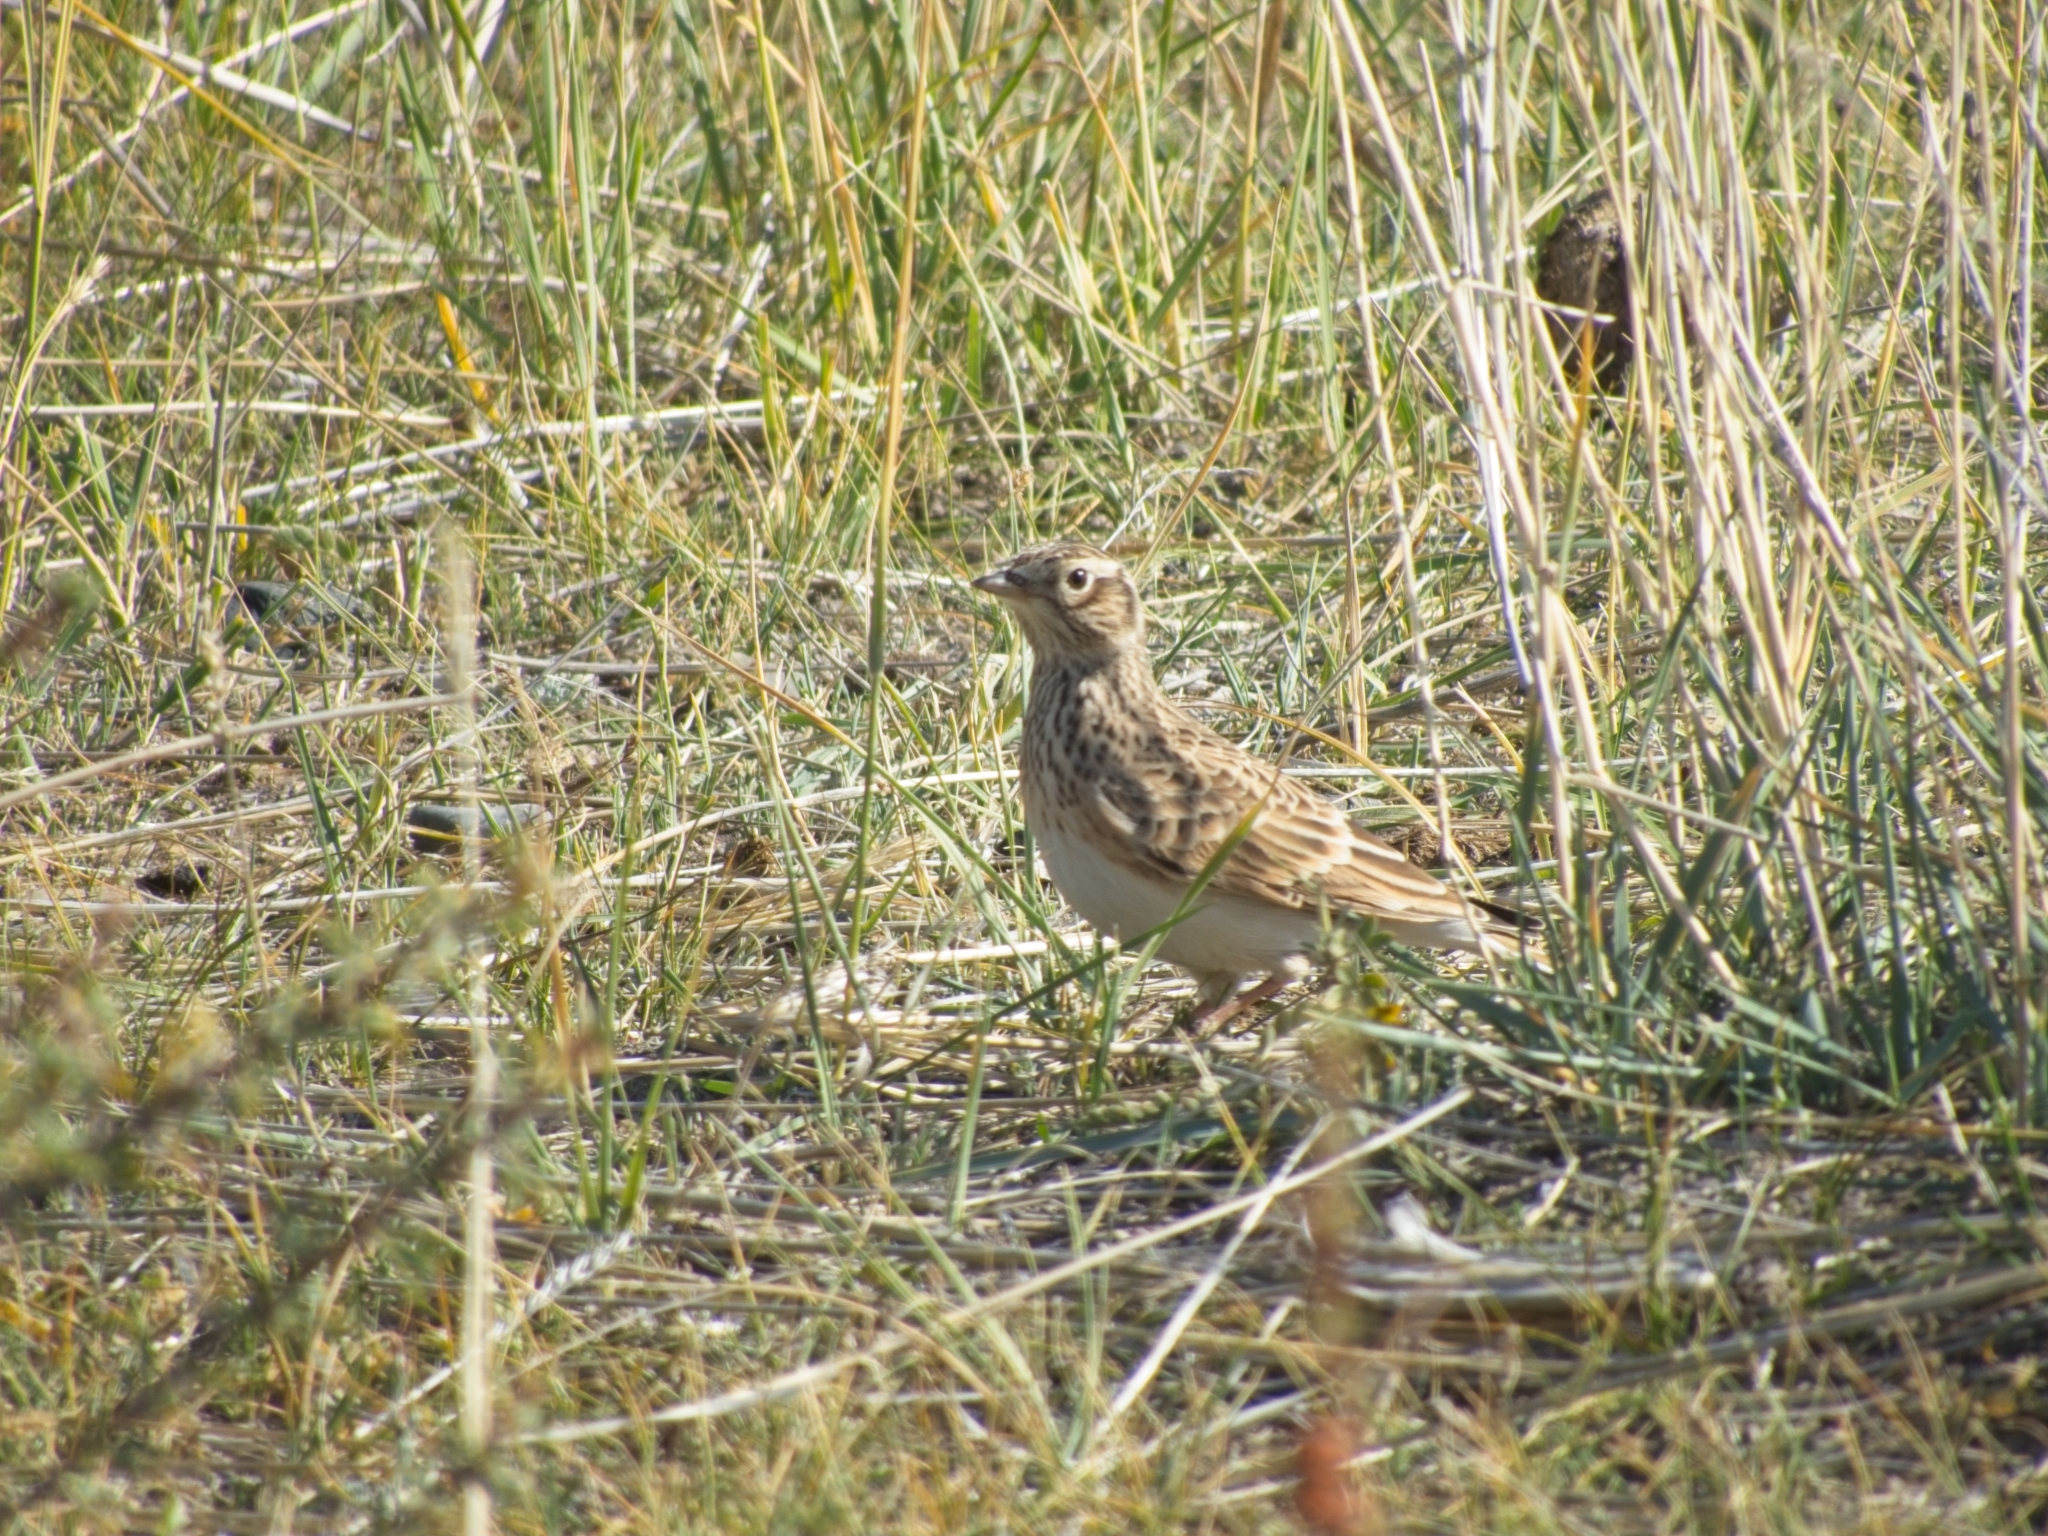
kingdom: Animalia
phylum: Chordata
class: Aves
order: Passeriformes
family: Alaudidae
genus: Alauda
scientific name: Alauda arvensis
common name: Eurasian skylark
